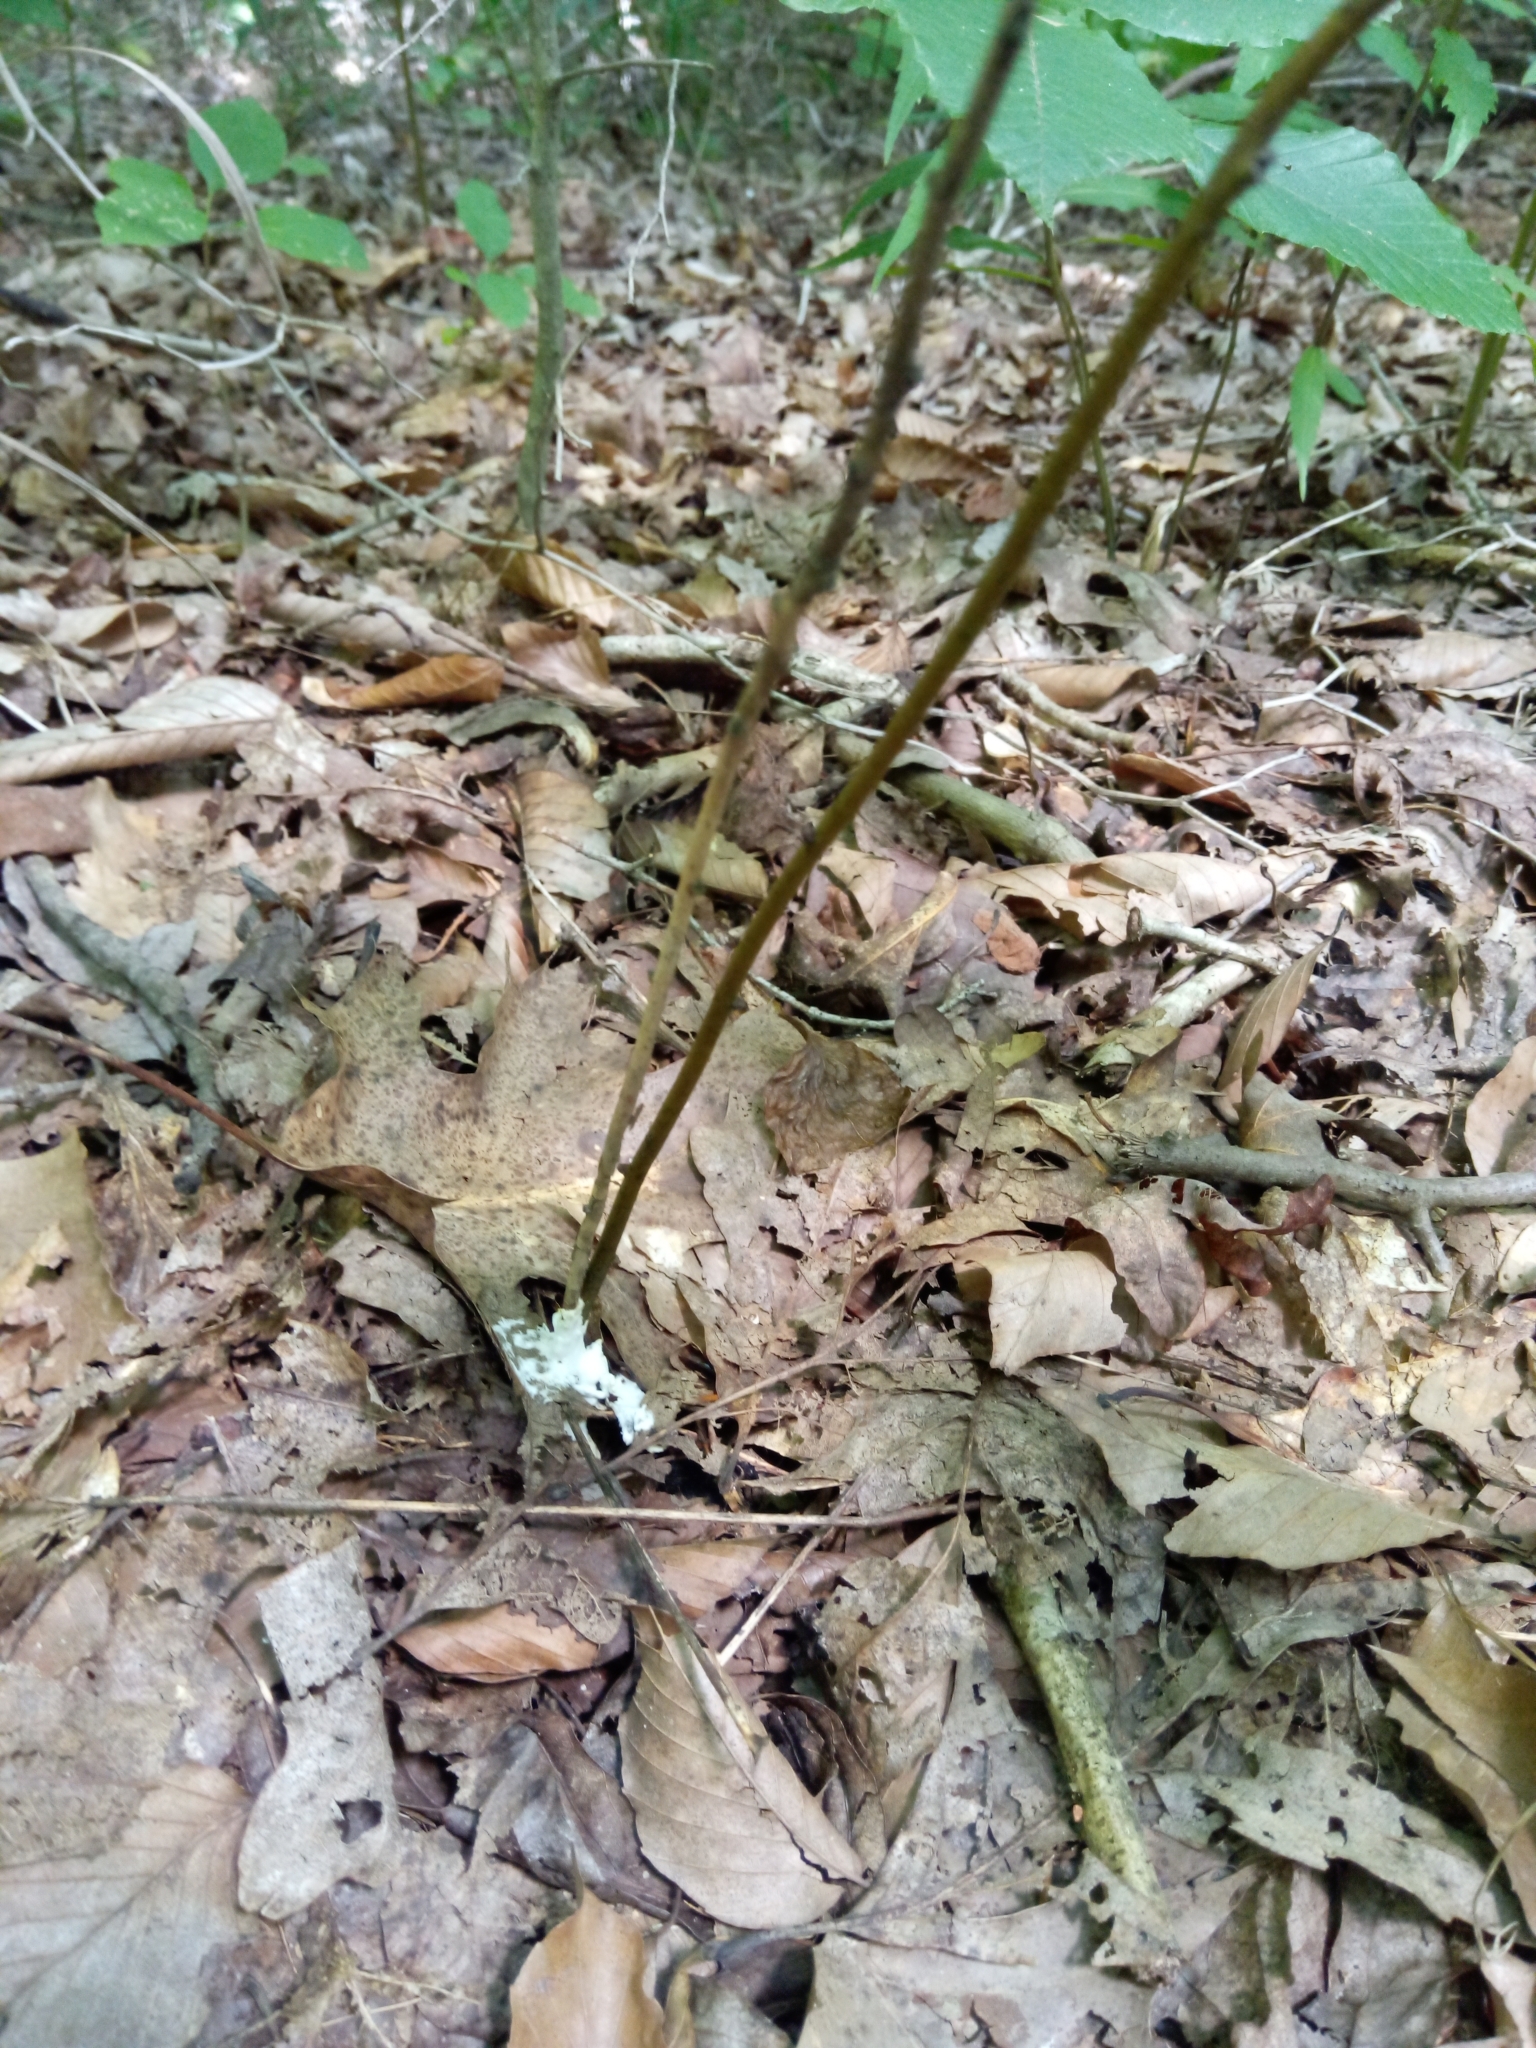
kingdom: Fungi
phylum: Basidiomycota
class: Agaricomycetes
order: Sebacinales
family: Sebacinaceae
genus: Sebacina
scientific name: Sebacina incrustans
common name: Enveloping crust
